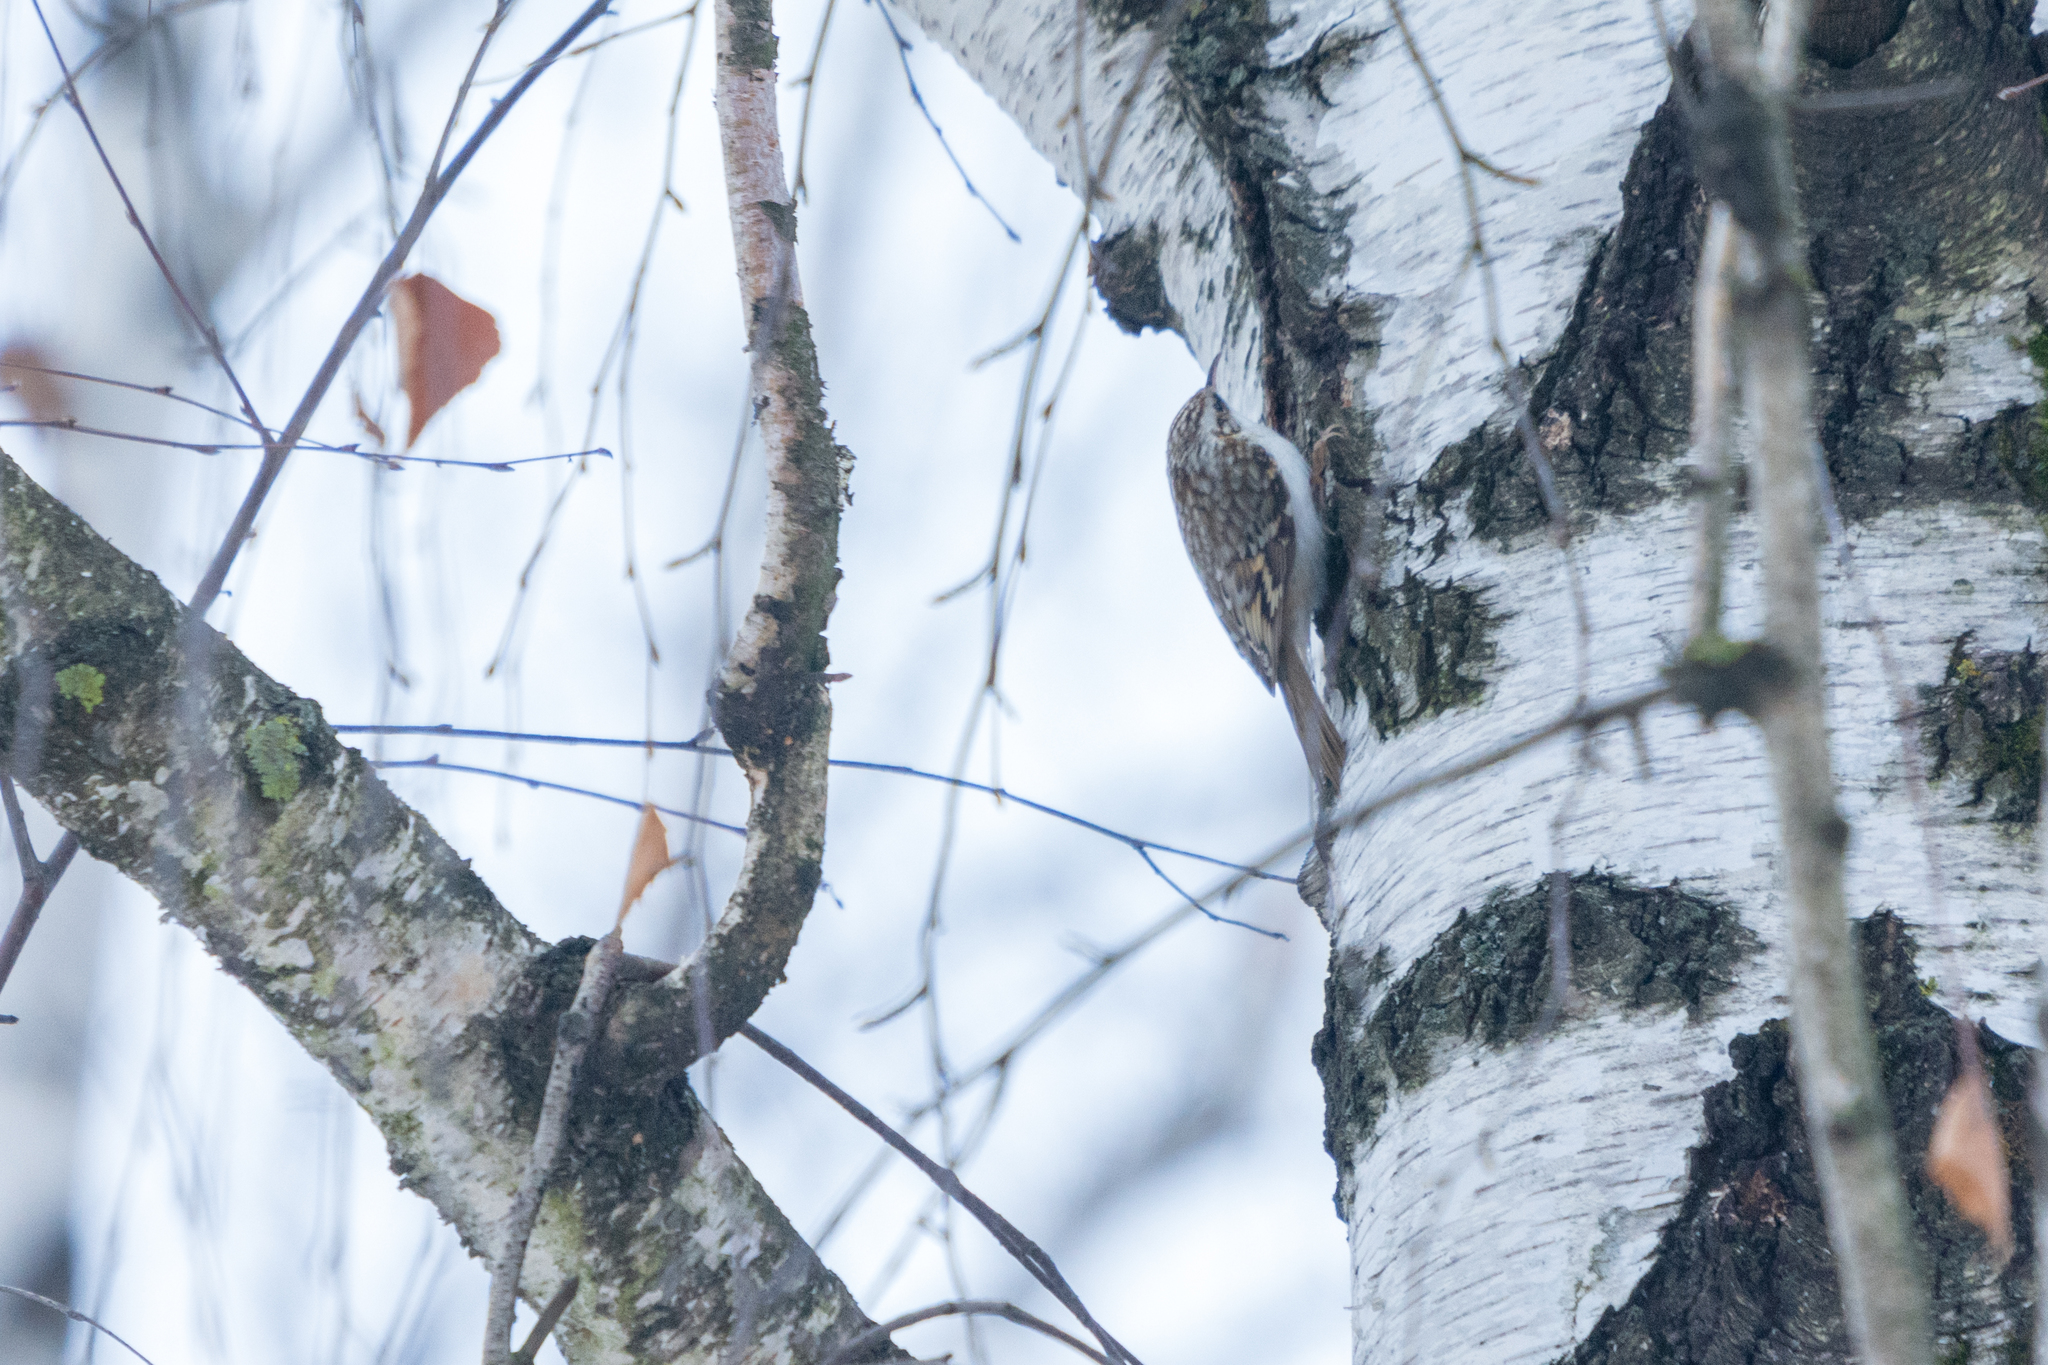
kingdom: Animalia
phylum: Chordata
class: Aves
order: Passeriformes
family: Certhiidae
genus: Certhia
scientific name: Certhia familiaris
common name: Eurasian treecreeper
